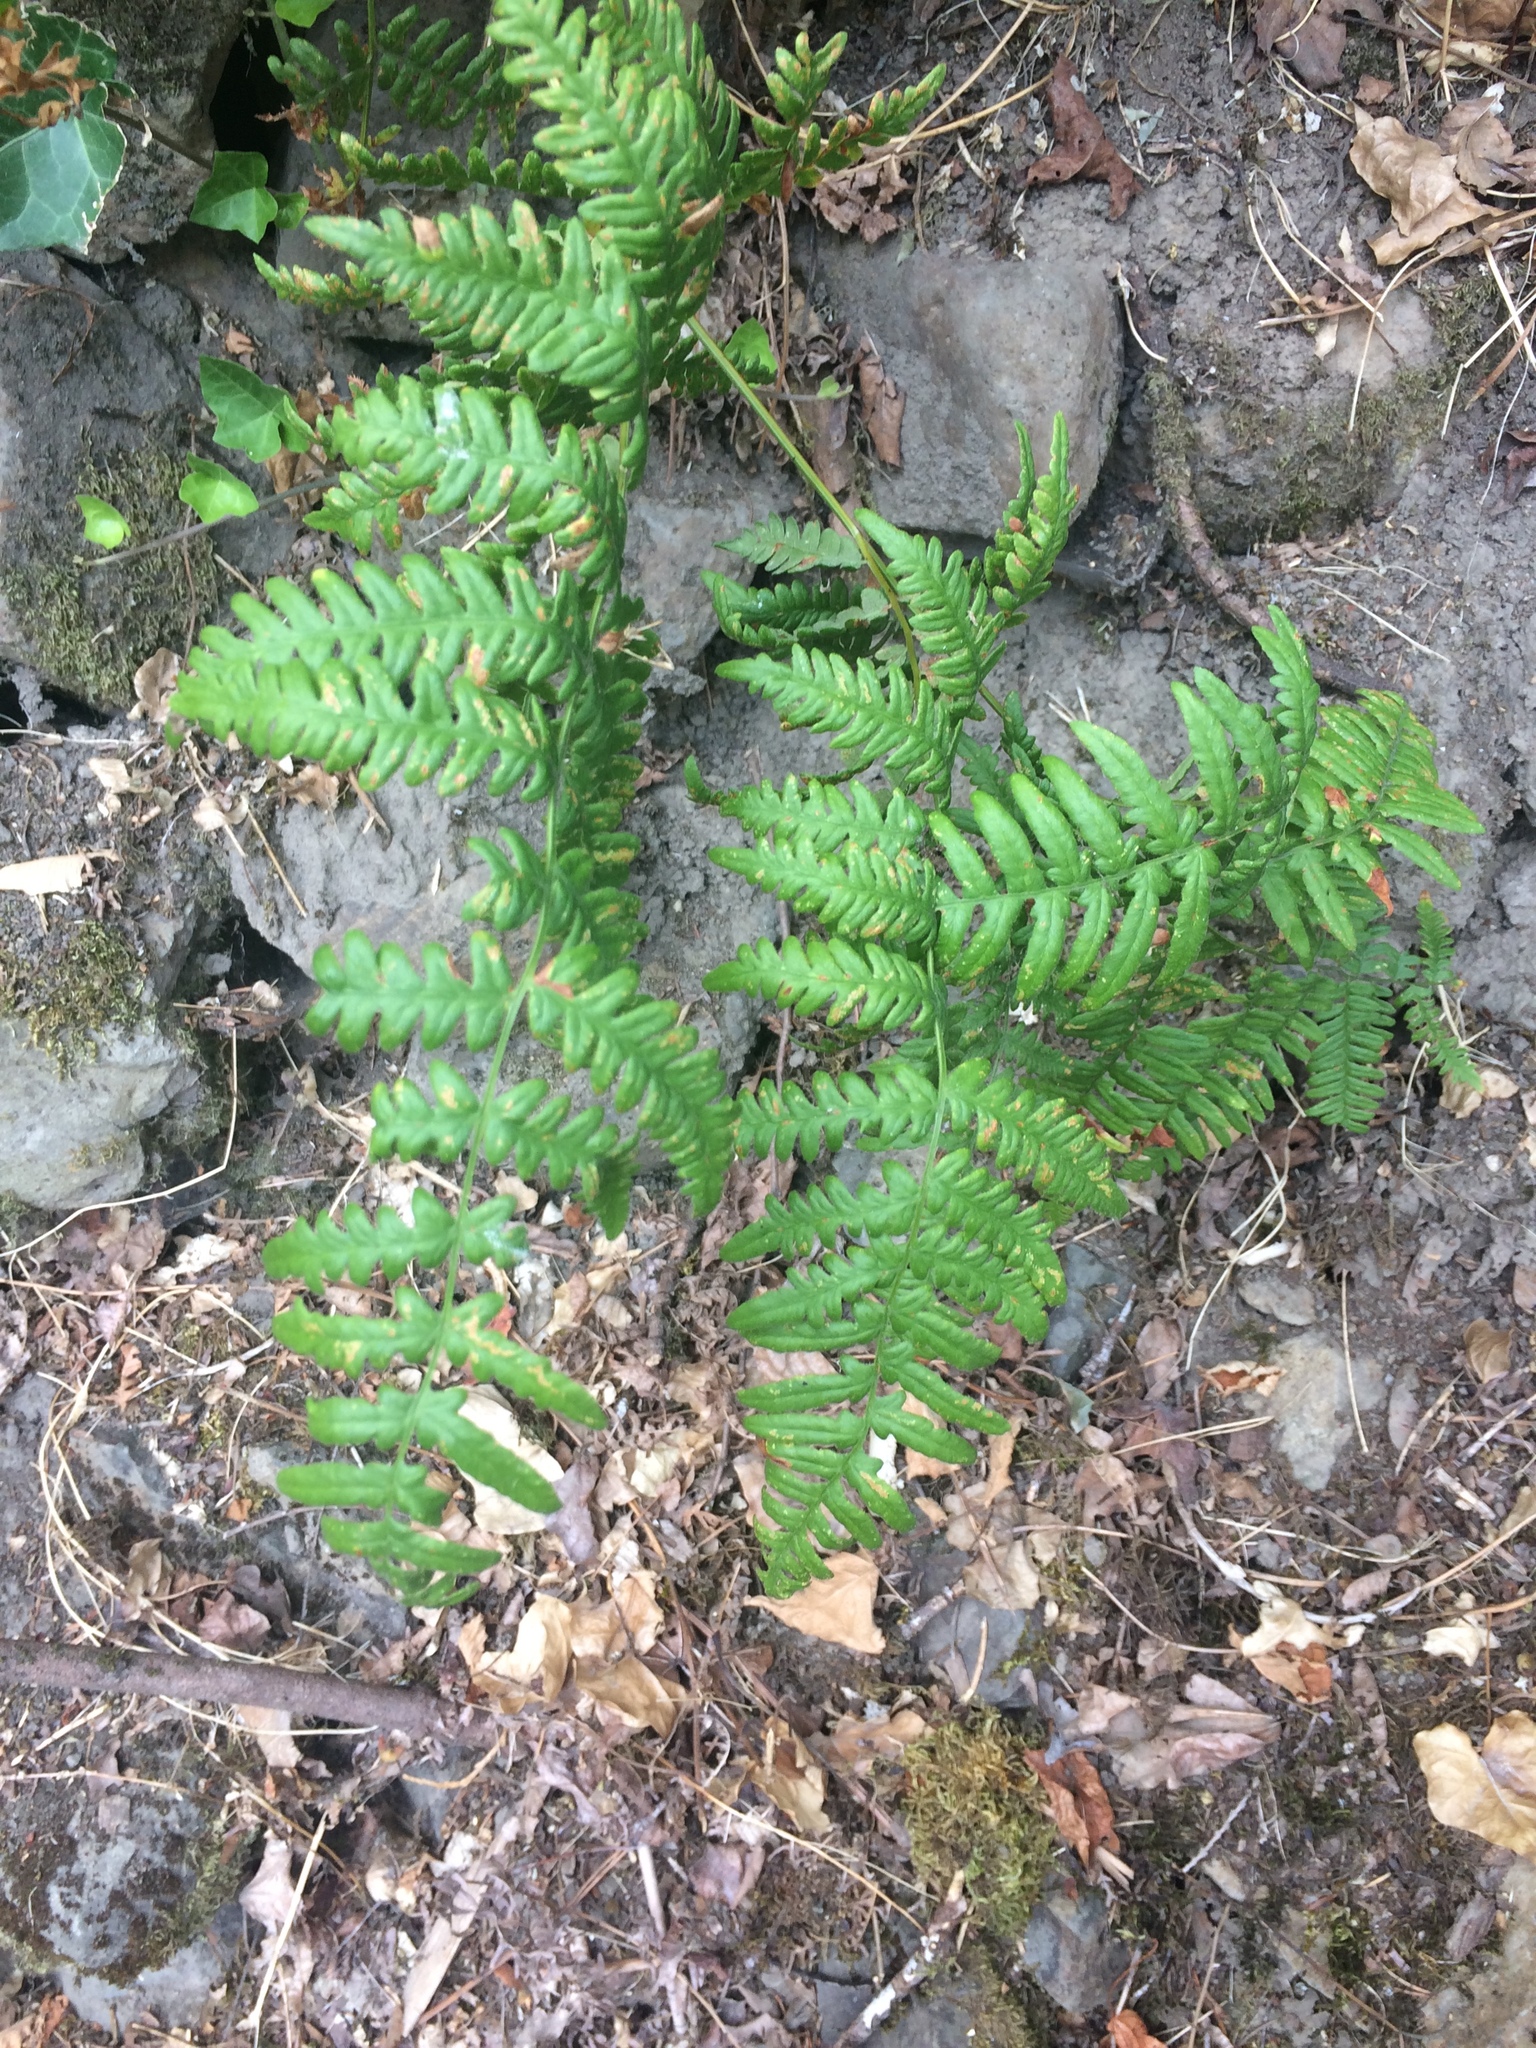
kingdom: Plantae
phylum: Tracheophyta
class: Polypodiopsida
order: Polypodiales
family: Dennstaedtiaceae
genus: Pteridium
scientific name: Pteridium aquilinum
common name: Bracken
